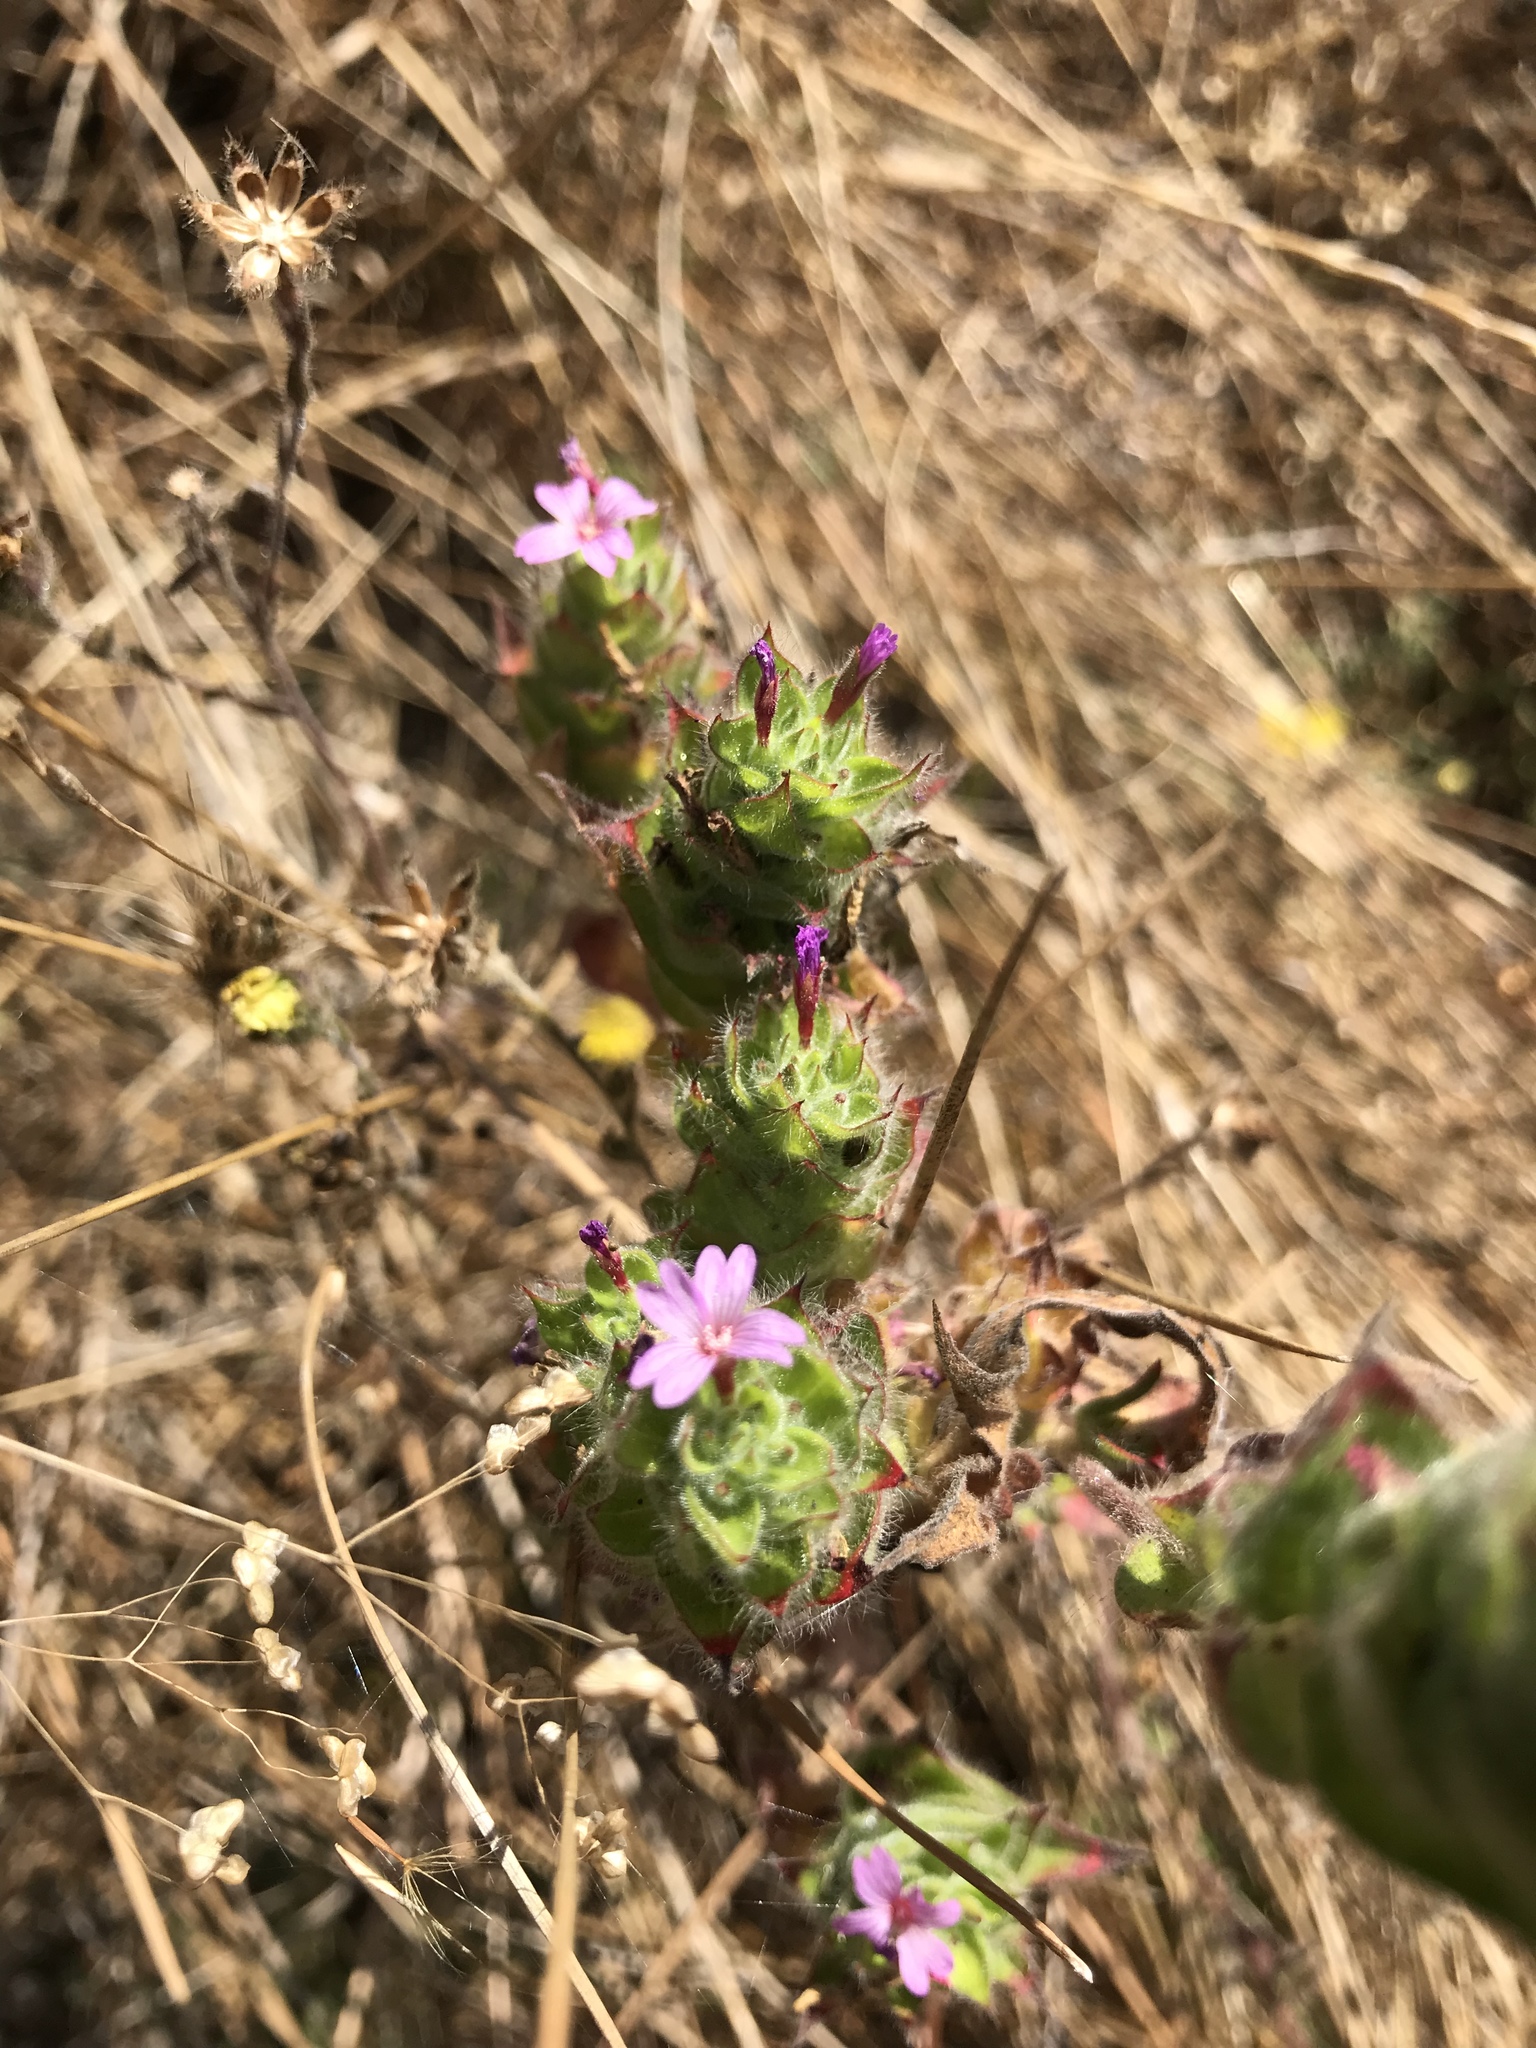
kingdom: Plantae
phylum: Tracheophyta
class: Magnoliopsida
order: Myrtales
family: Onagraceae
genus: Epilobium
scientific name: Epilobium densiflorum
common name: Dense spike-primrose
